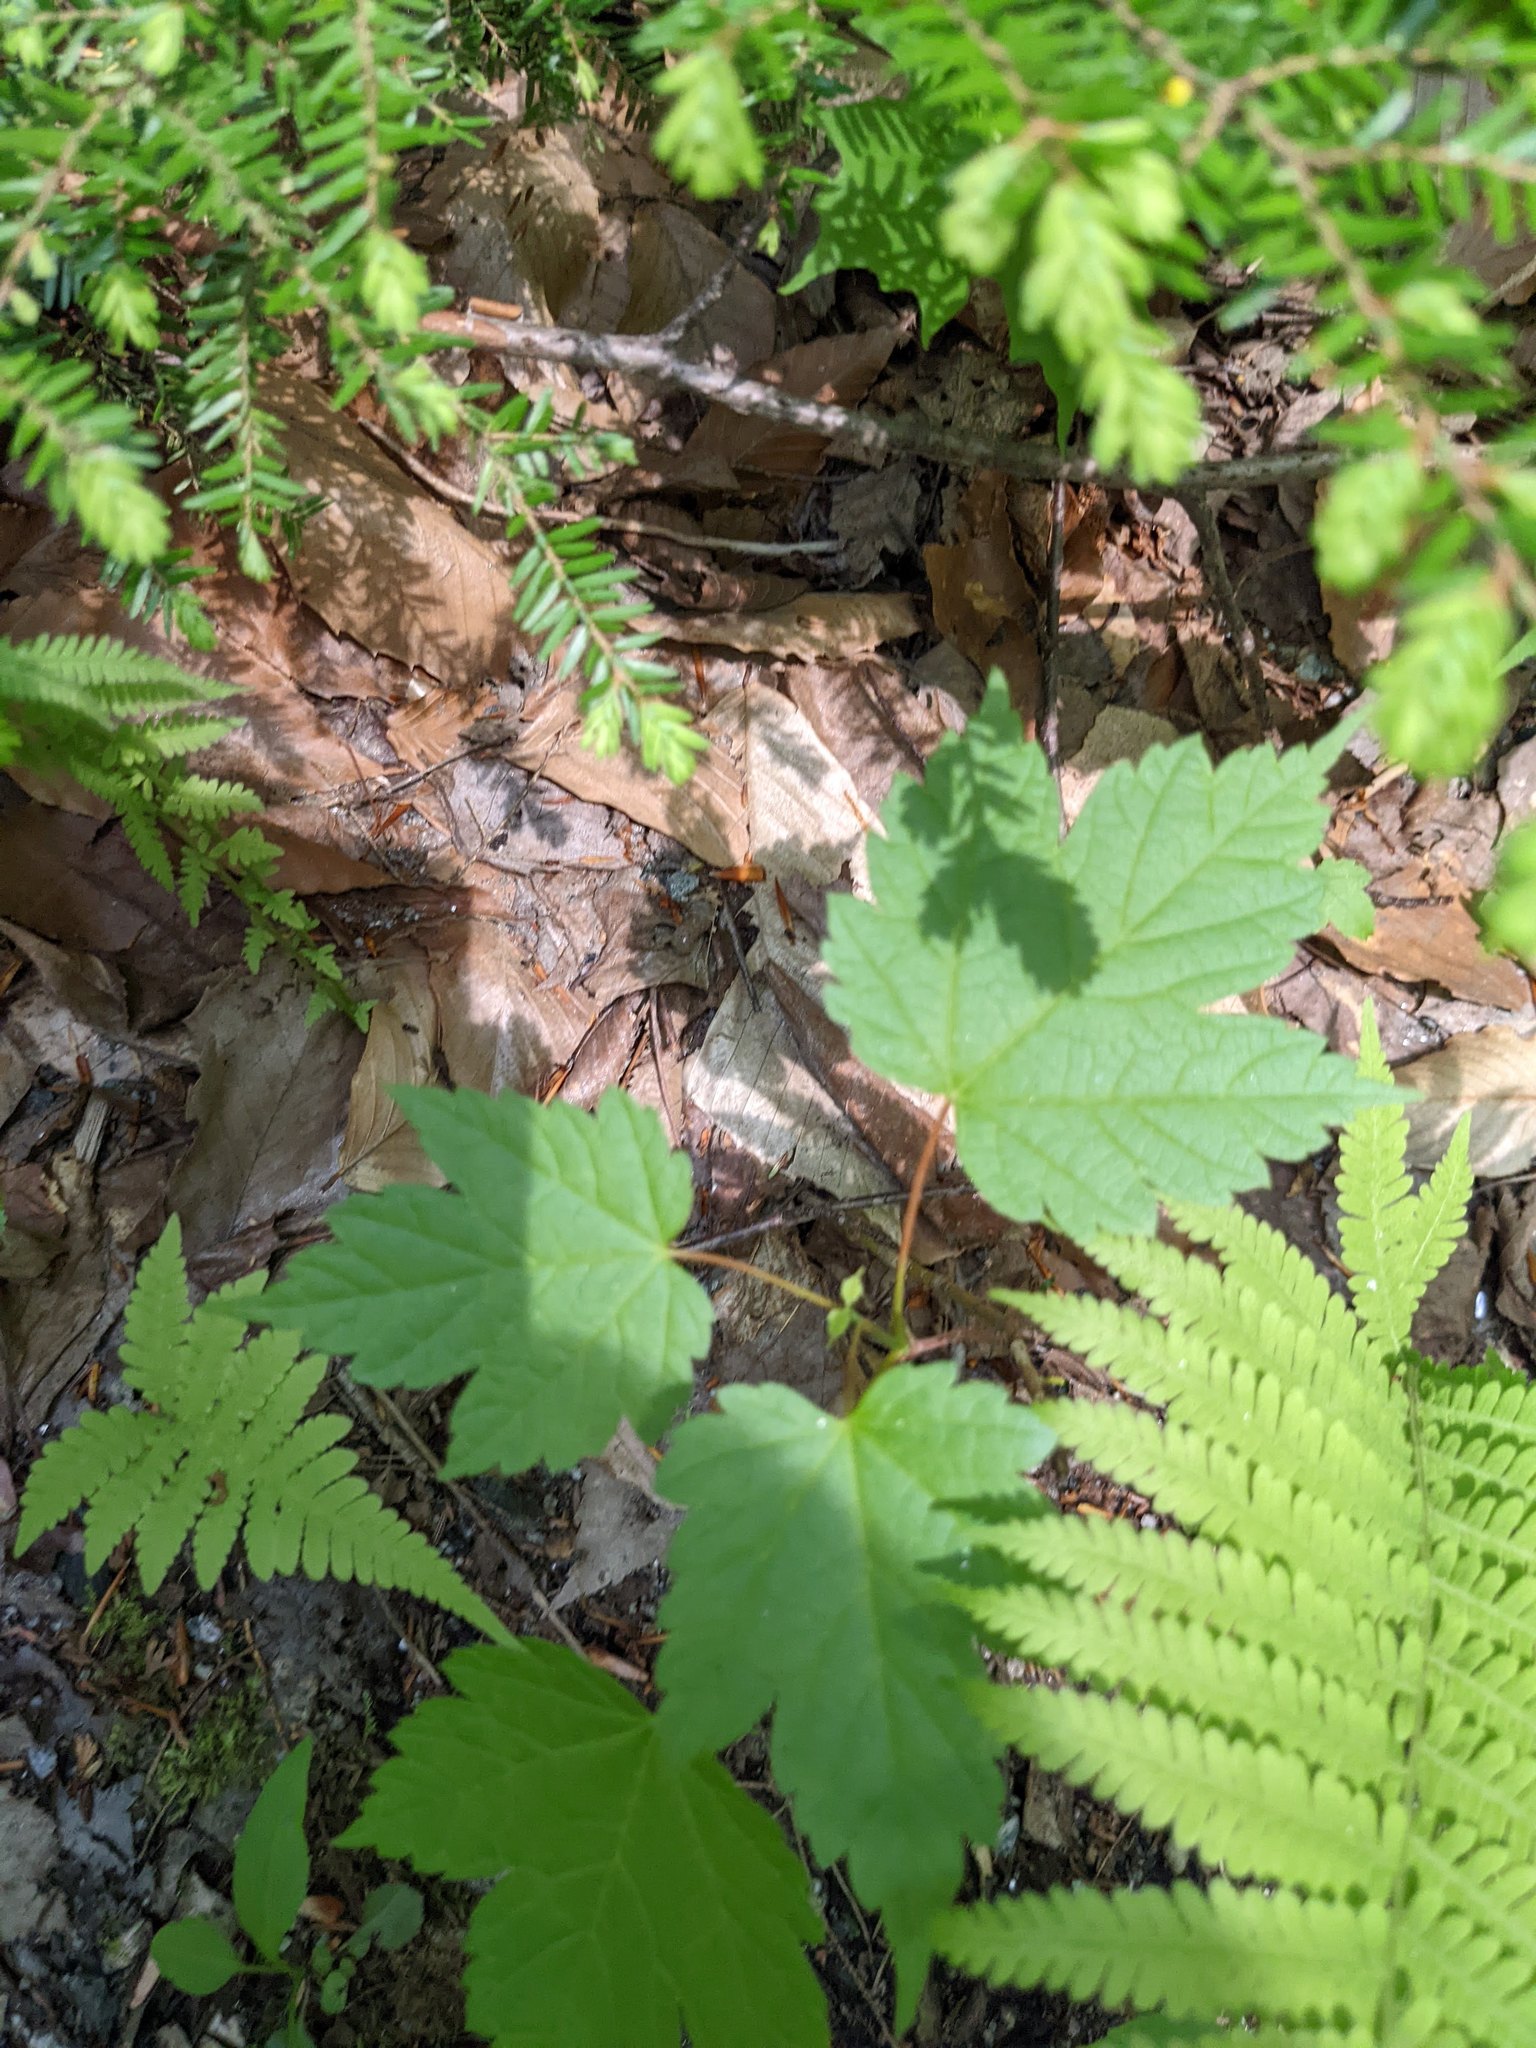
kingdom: Plantae
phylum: Tracheophyta
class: Magnoliopsida
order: Sapindales
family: Sapindaceae
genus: Acer
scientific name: Acer spicatum
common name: Mountain maple
